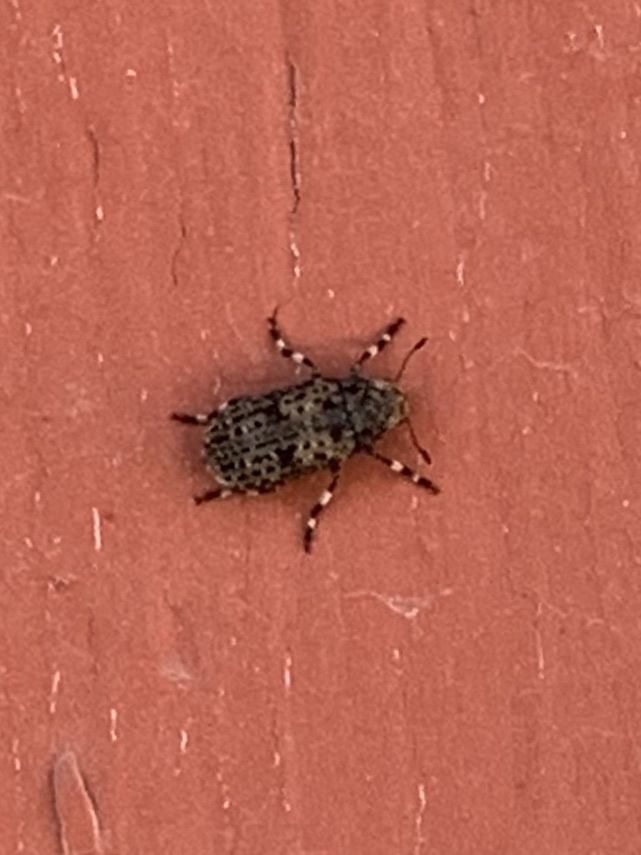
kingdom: Animalia
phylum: Arthropoda
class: Insecta
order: Coleoptera
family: Anthribidae
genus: Euparius
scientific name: Euparius subtessellatus
